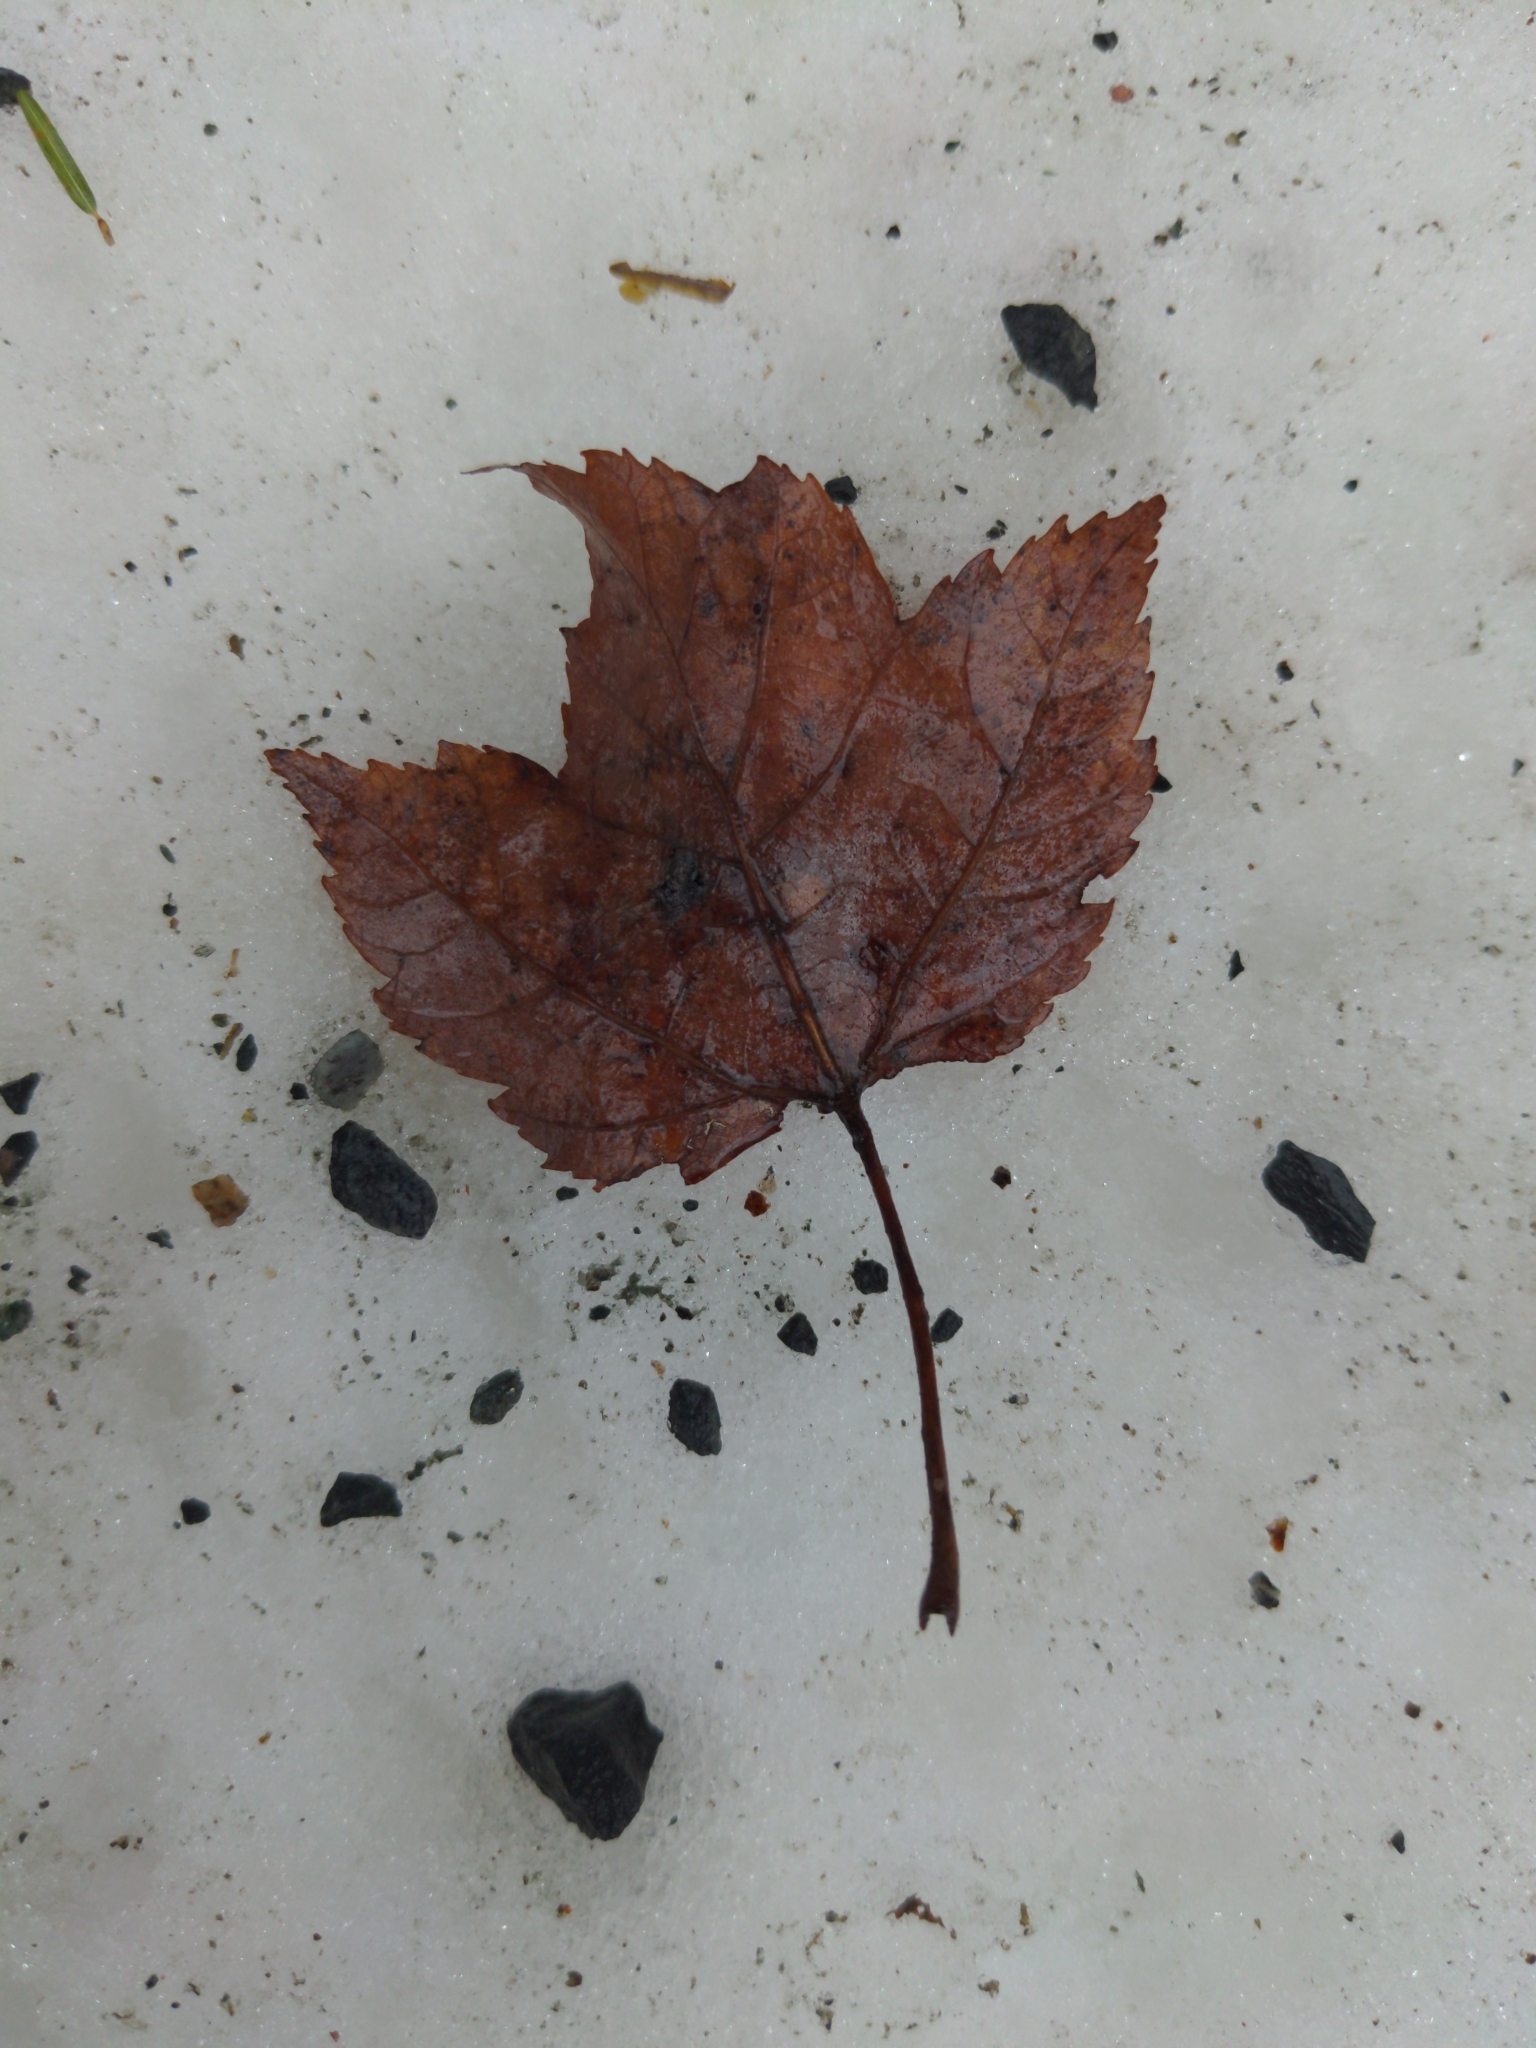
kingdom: Plantae
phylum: Tracheophyta
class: Magnoliopsida
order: Sapindales
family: Sapindaceae
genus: Acer
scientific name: Acer rubrum
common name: Red maple
